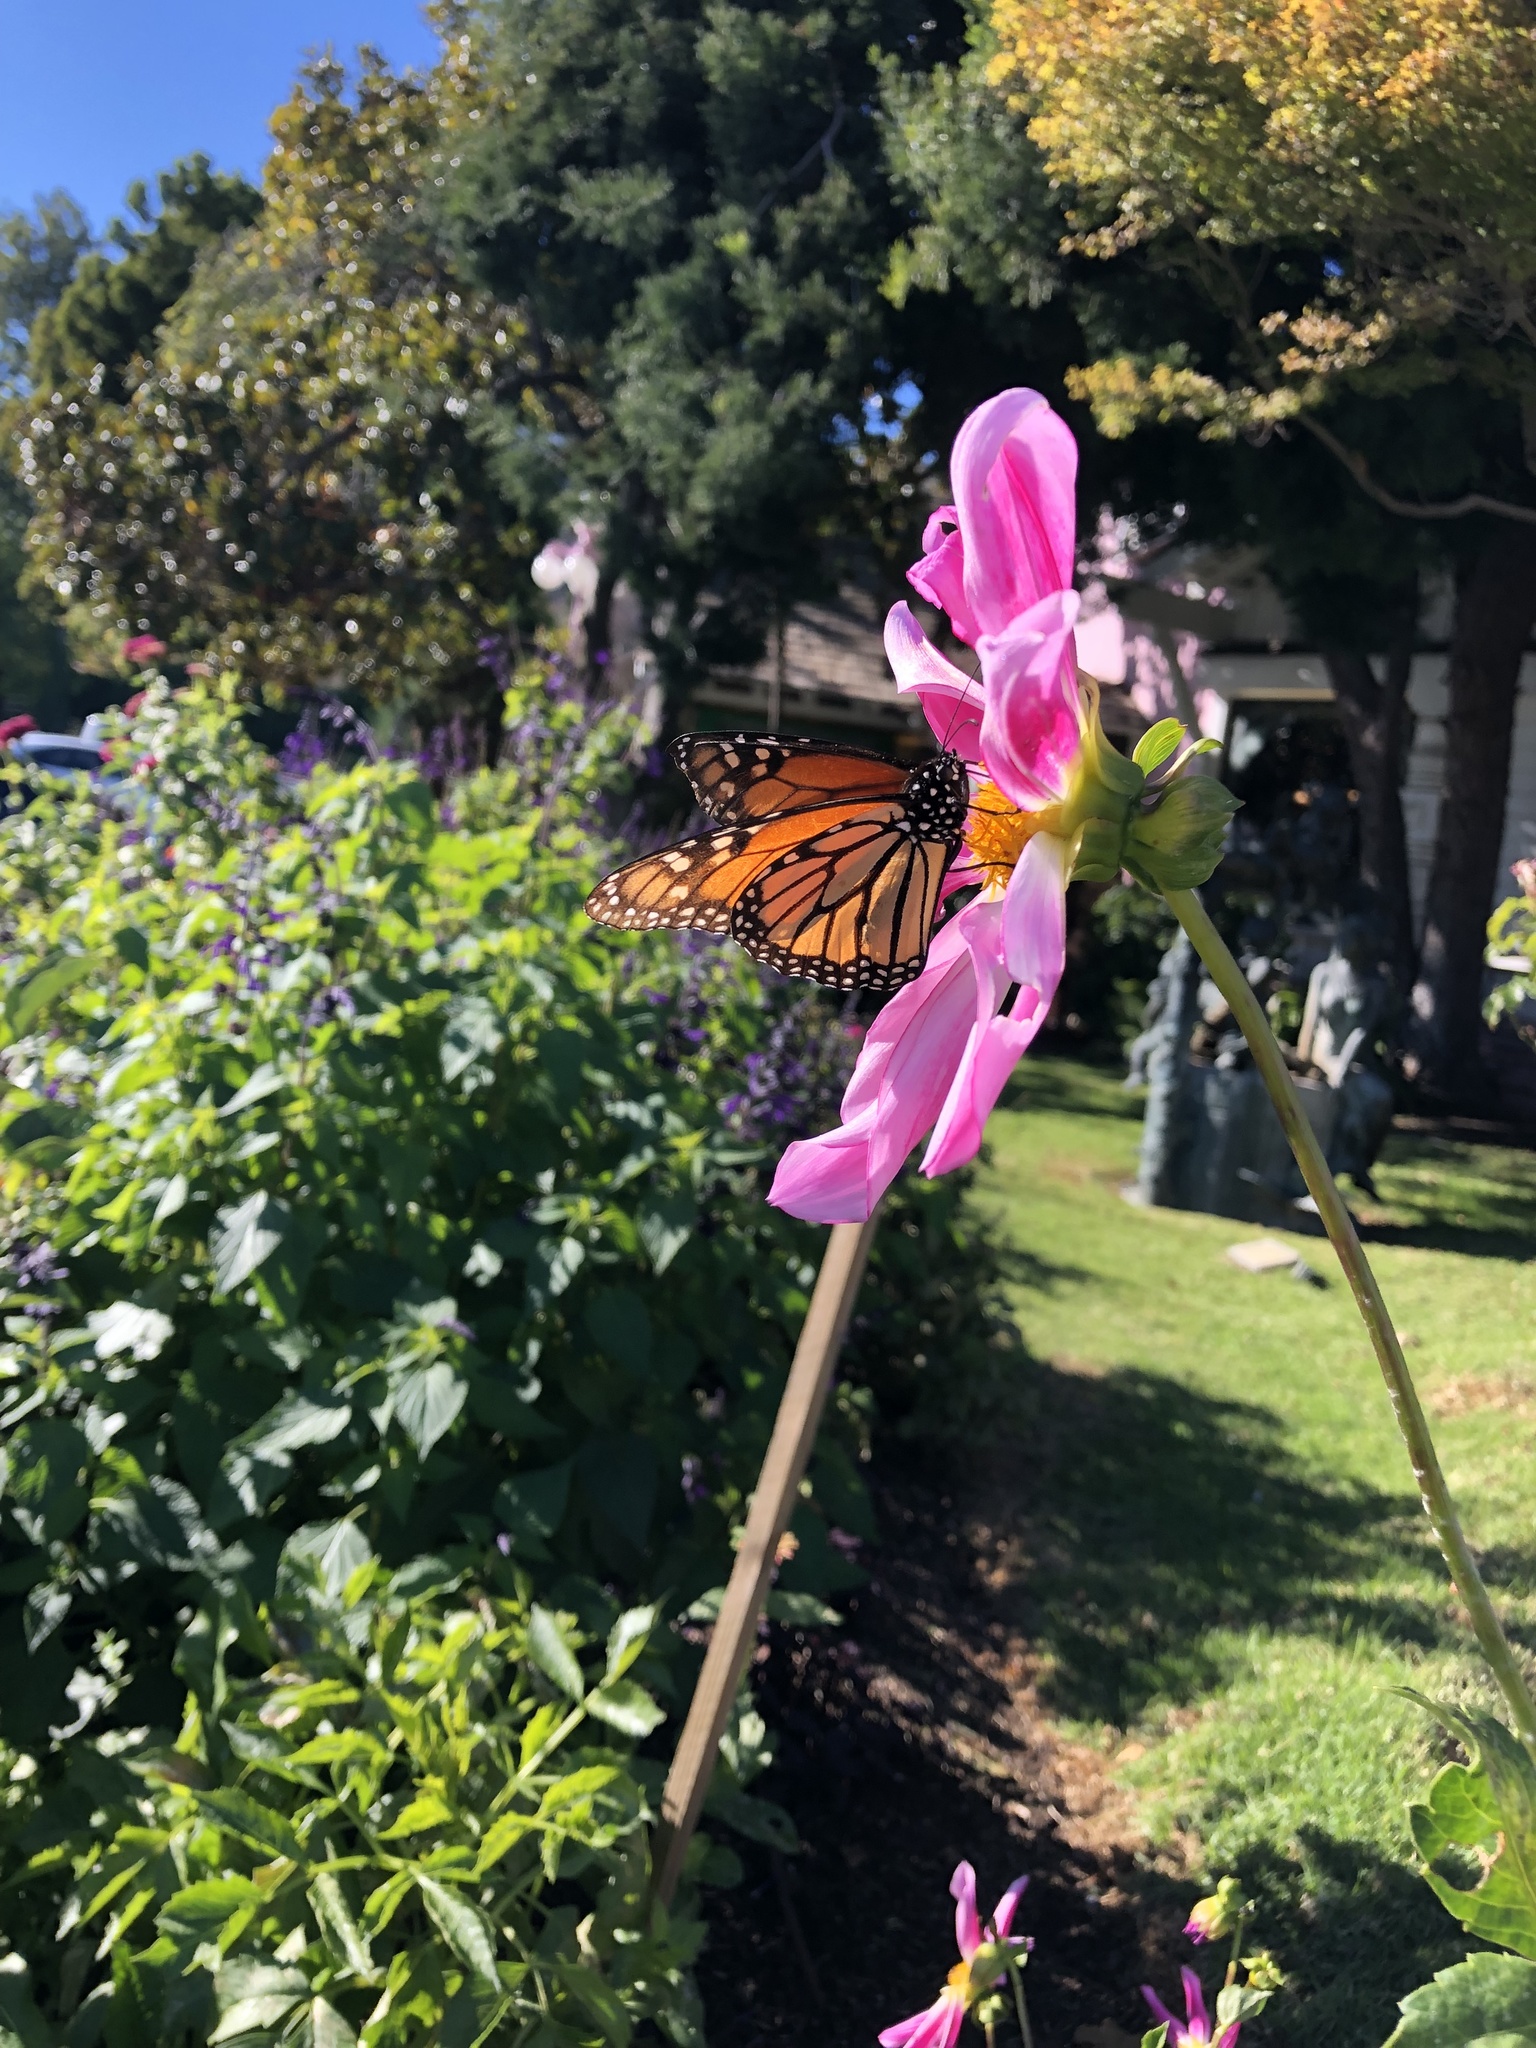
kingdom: Animalia
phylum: Arthropoda
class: Insecta
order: Lepidoptera
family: Nymphalidae
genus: Danaus
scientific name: Danaus plexippus
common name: Monarch
